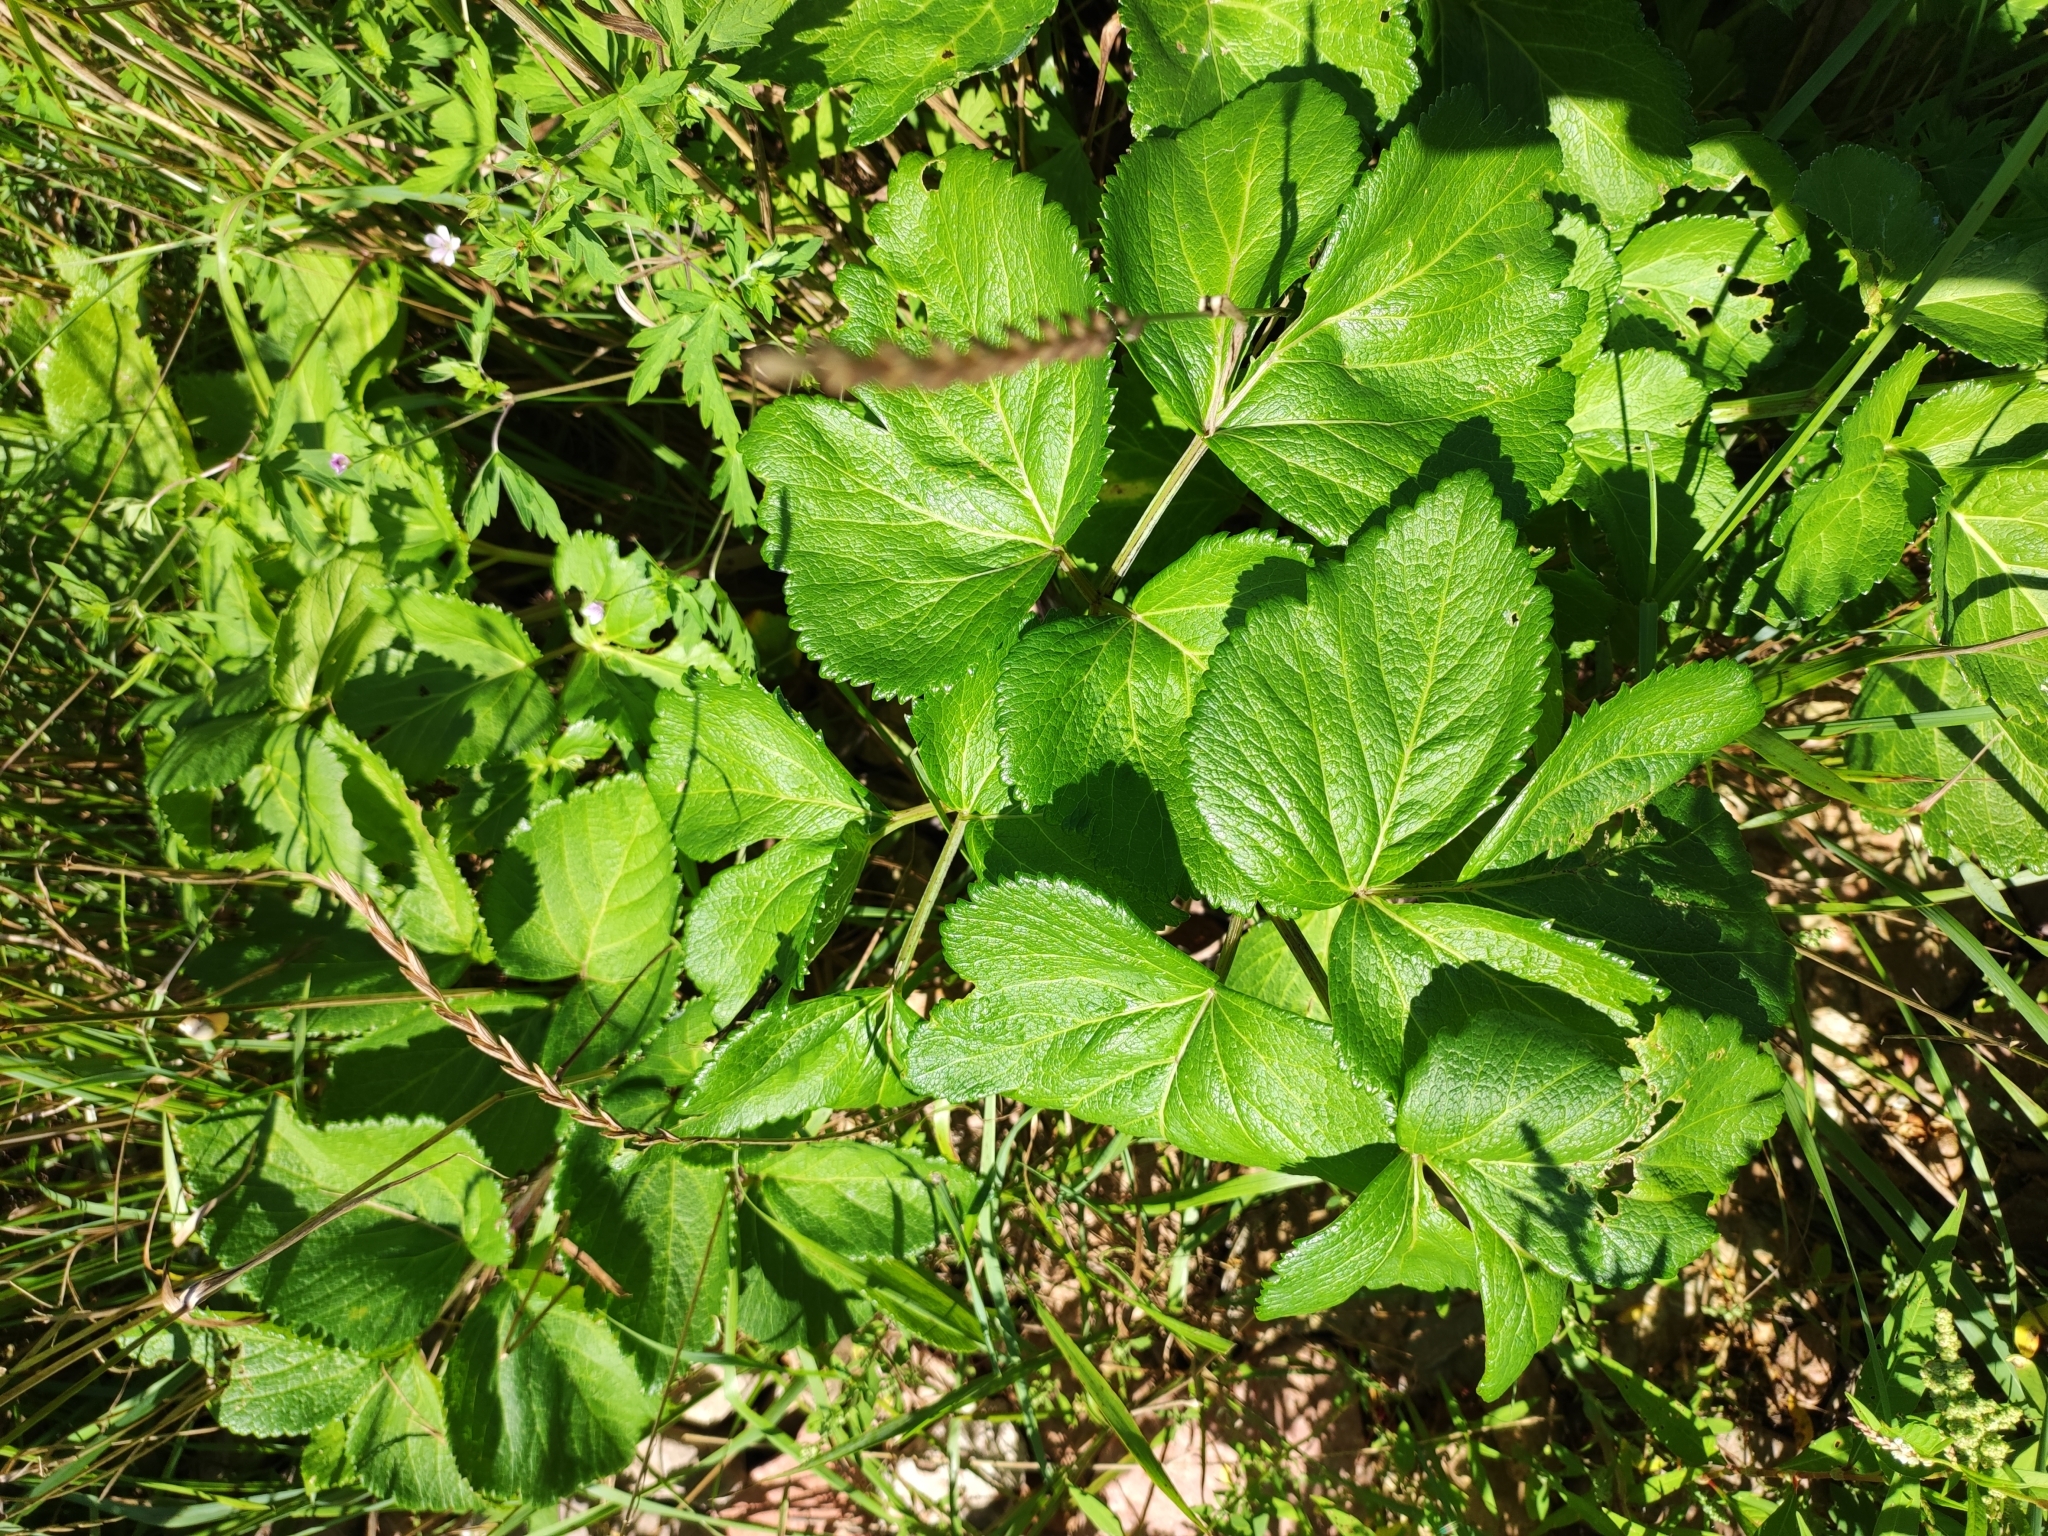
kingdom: Plantae
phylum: Tracheophyta
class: Magnoliopsida
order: Apiales
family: Apiaceae
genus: Angelica
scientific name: Angelica gmelinii
